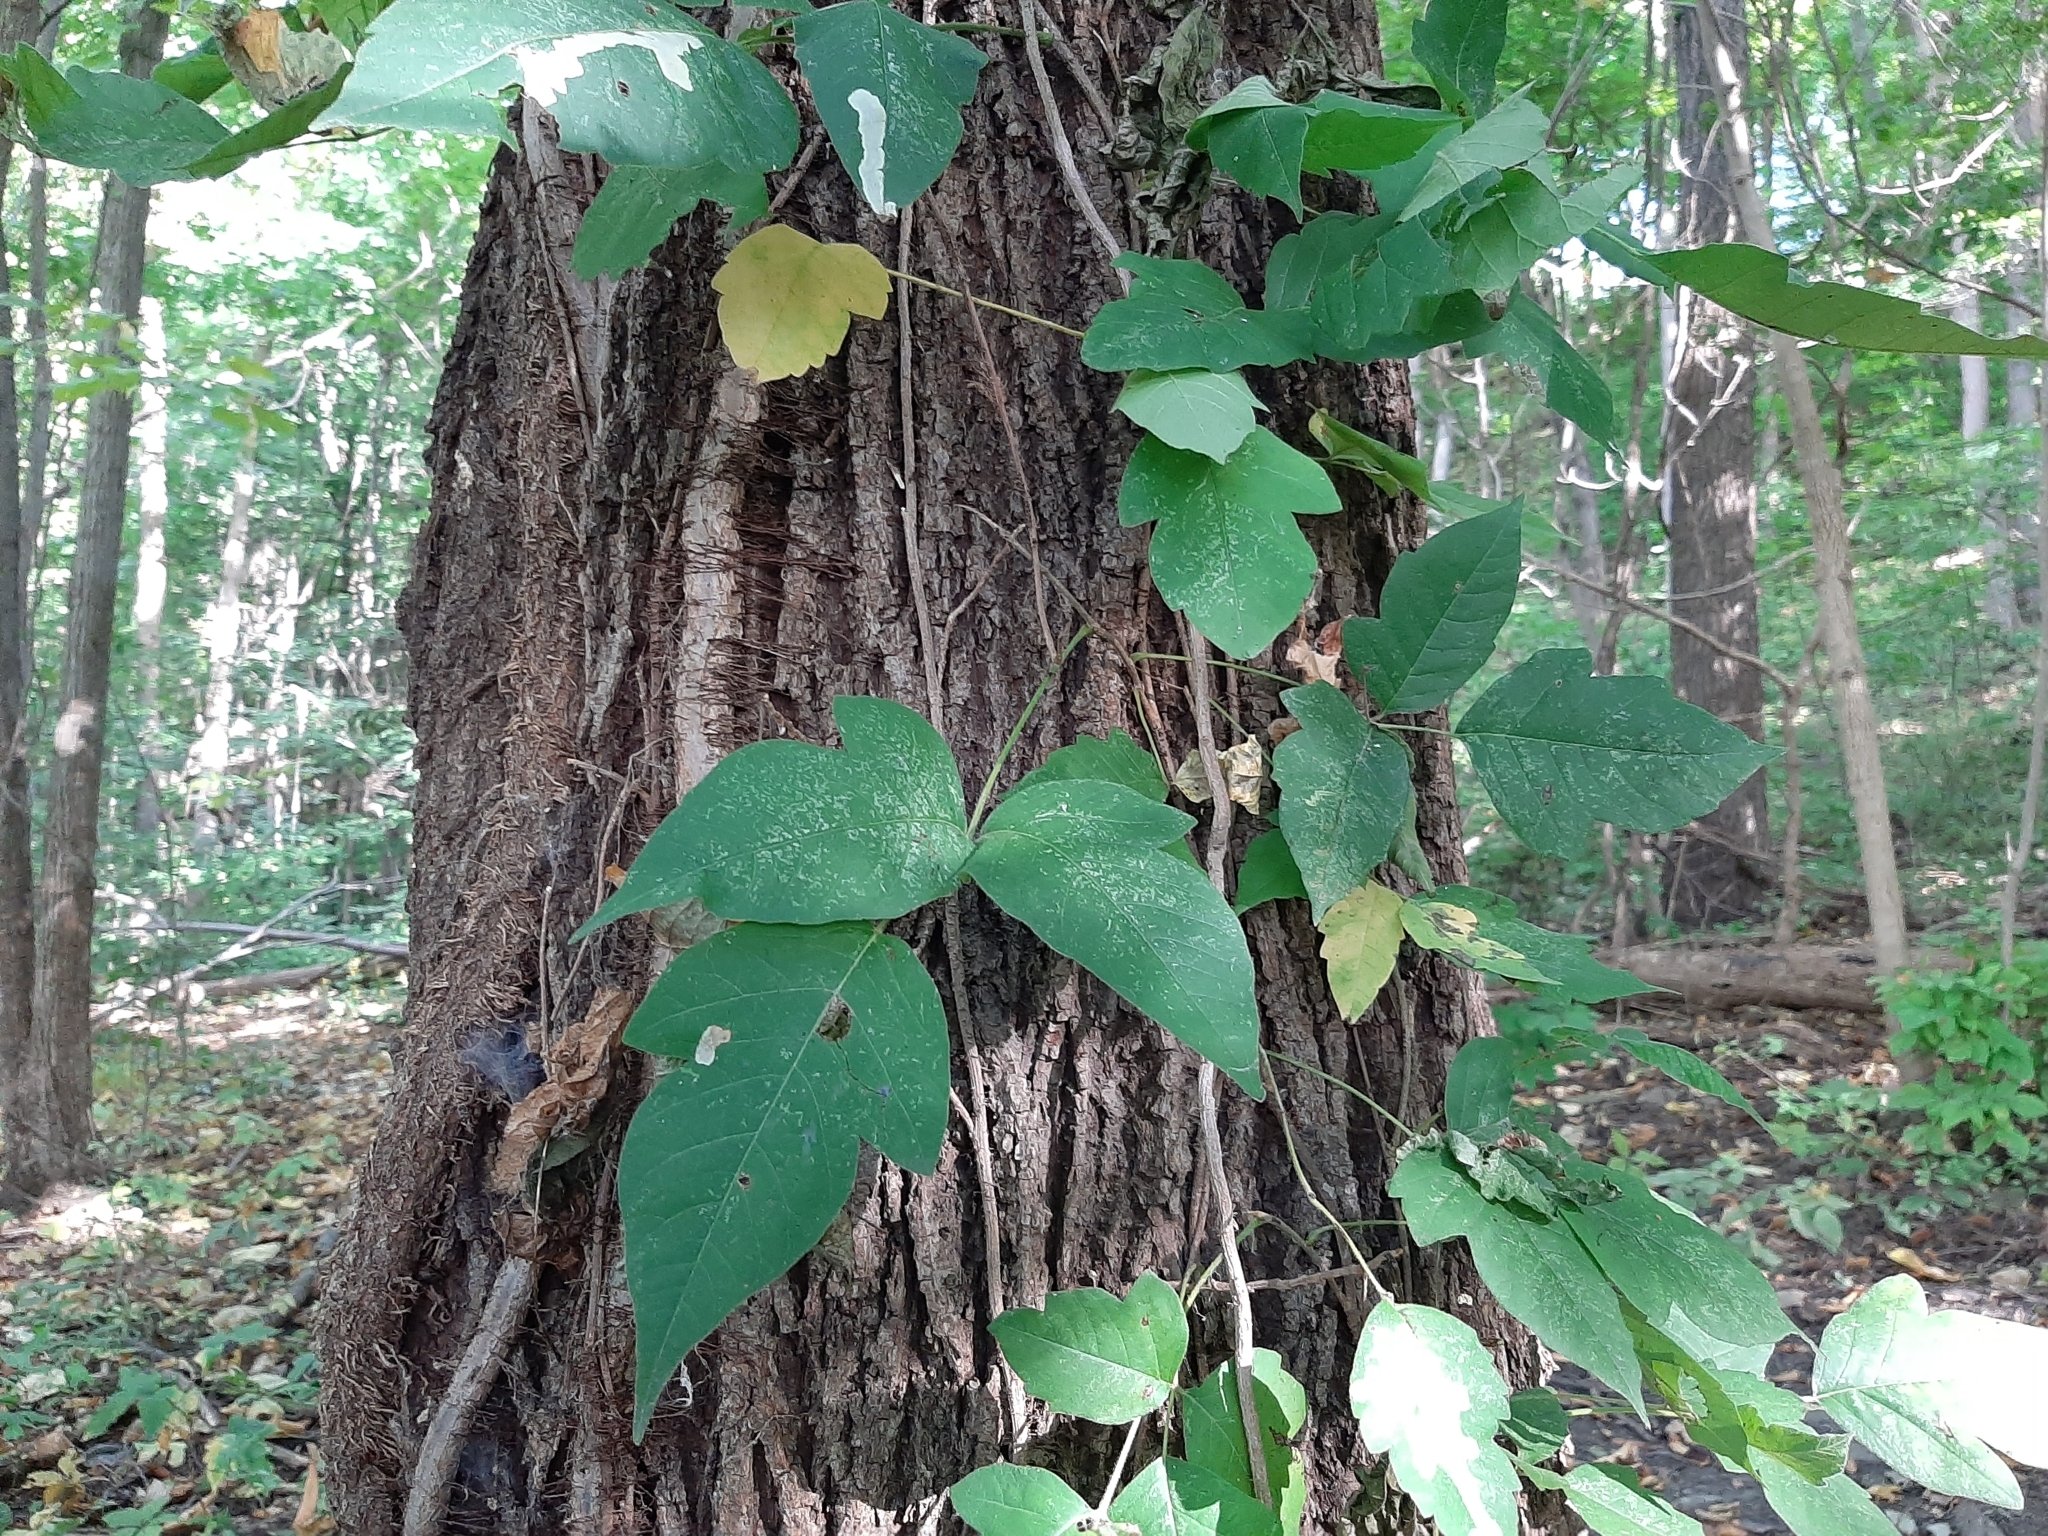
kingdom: Plantae
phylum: Tracheophyta
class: Magnoliopsida
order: Sapindales
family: Anacardiaceae
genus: Toxicodendron
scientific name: Toxicodendron radicans
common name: Poison ivy
